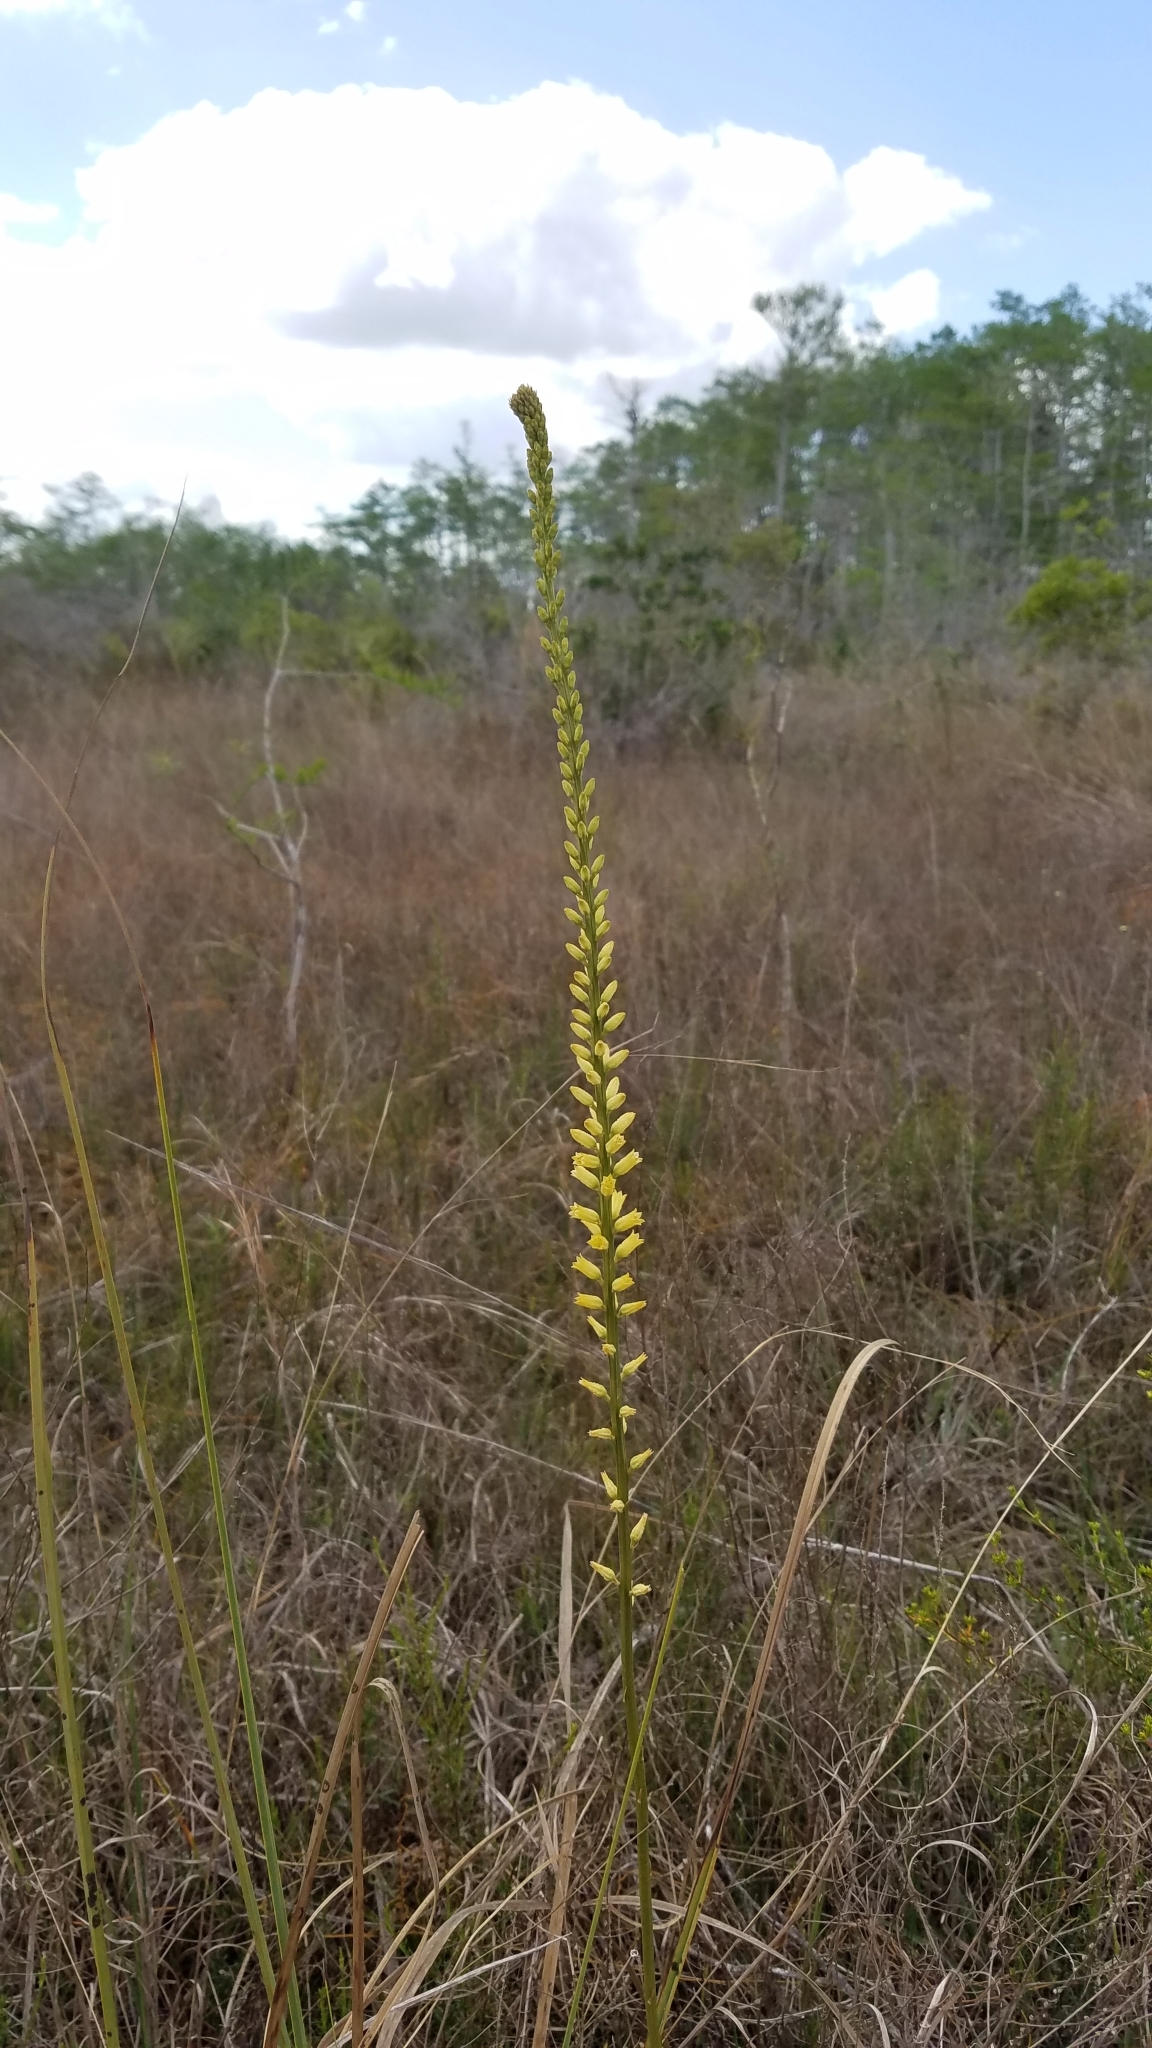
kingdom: Plantae
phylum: Tracheophyta
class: Liliopsida
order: Dioscoreales
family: Nartheciaceae
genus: Aletris
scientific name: Aletris lutea
